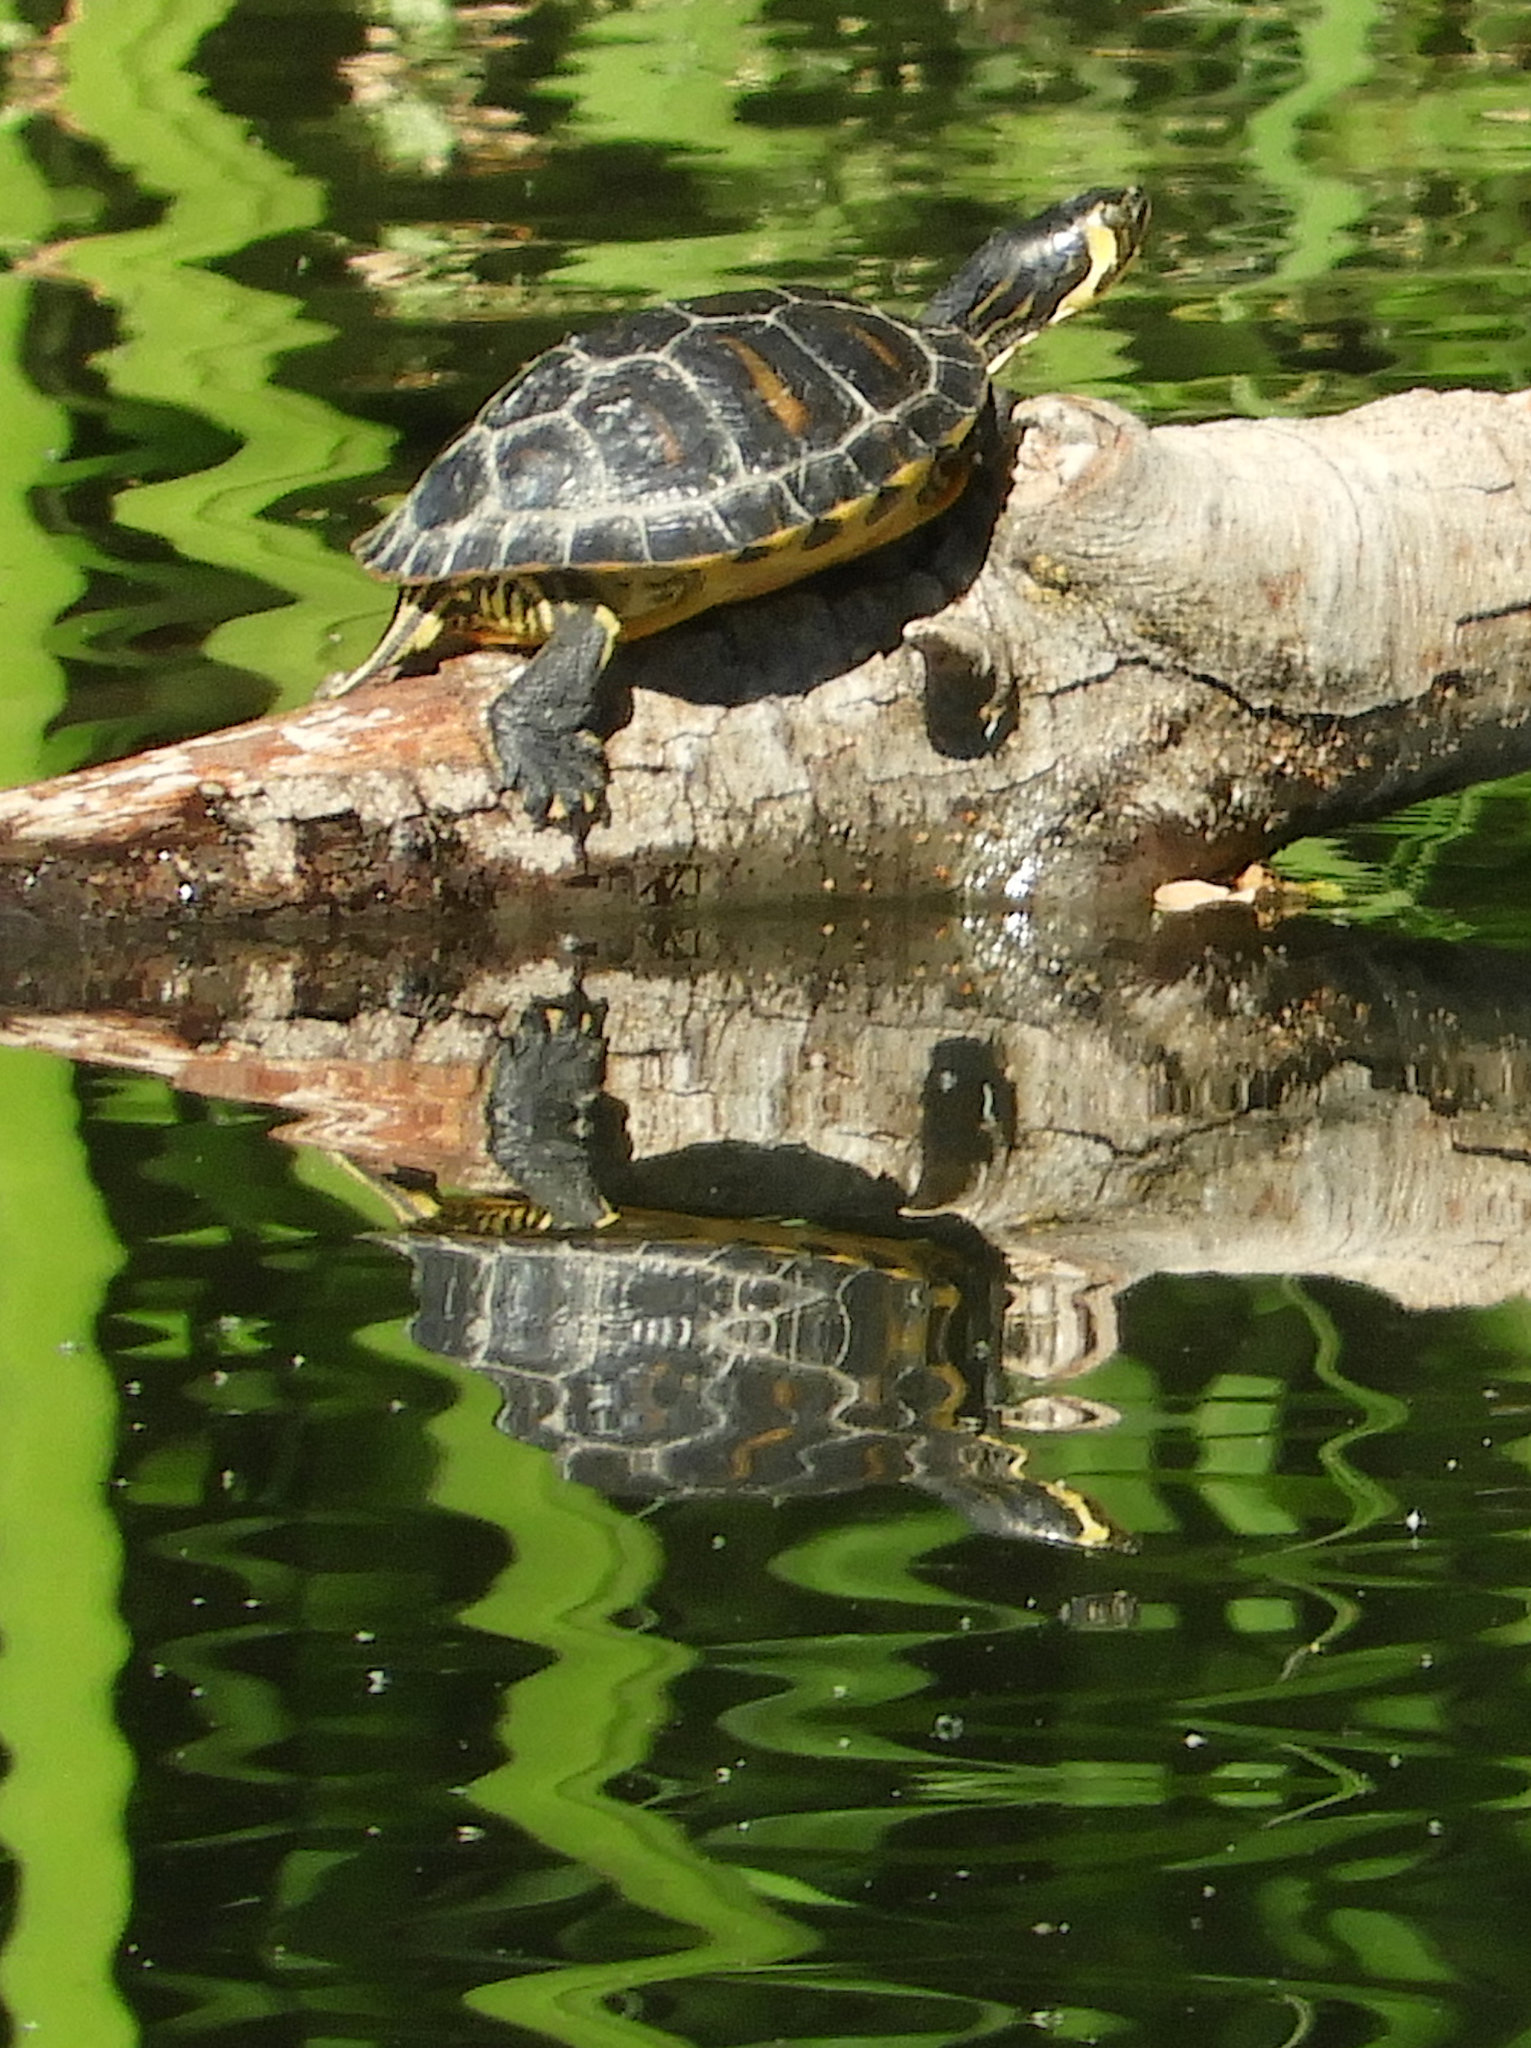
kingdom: Animalia
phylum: Chordata
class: Testudines
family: Emydidae
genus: Trachemys
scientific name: Trachemys scripta
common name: Slider
